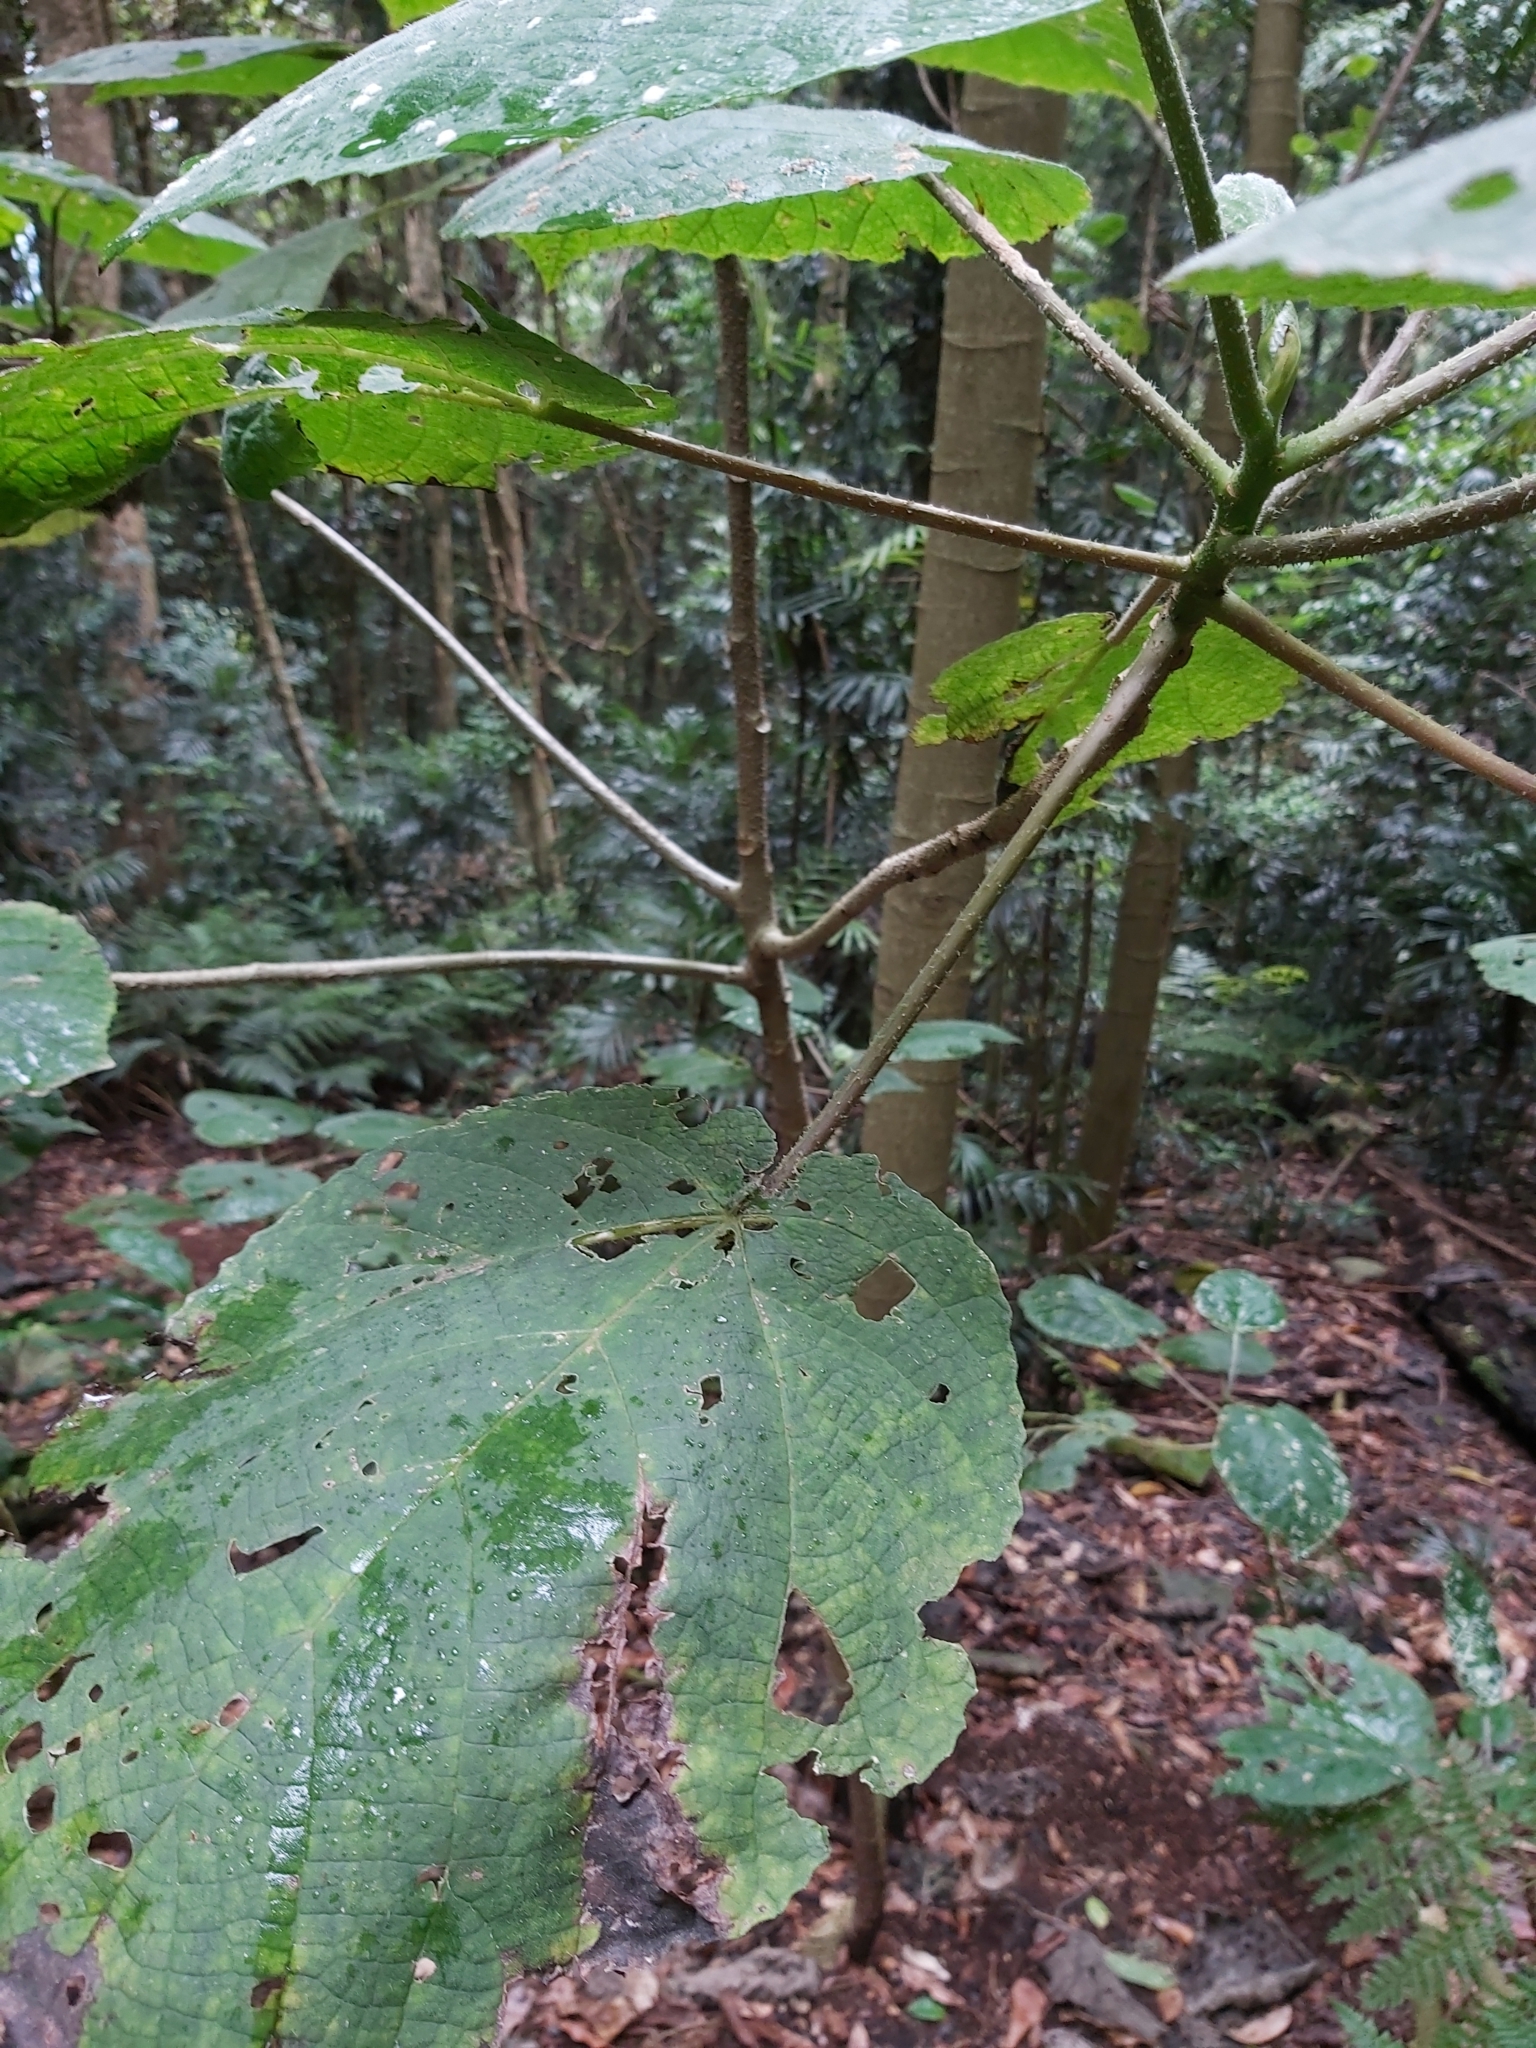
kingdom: Plantae
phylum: Tracheophyta
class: Magnoliopsida
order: Rosales
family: Urticaceae
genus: Dendrocnide
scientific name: Dendrocnide excelsa
